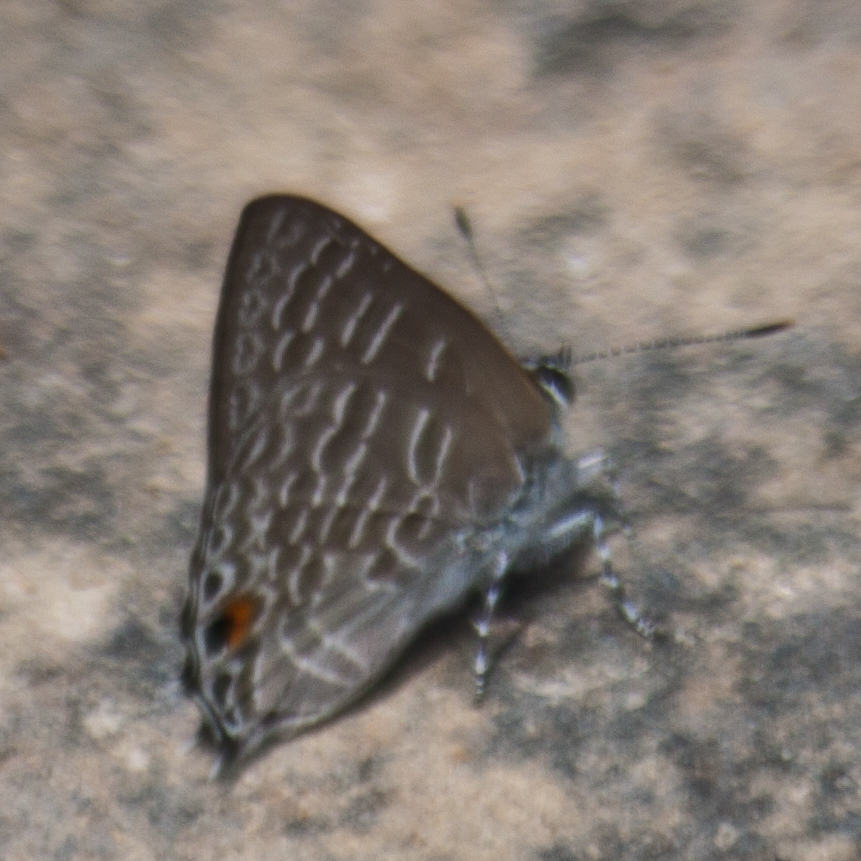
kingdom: Animalia
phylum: Arthropoda
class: Insecta
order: Lepidoptera
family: Lycaenidae
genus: Anthene
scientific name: Anthene licates
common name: White ciliate blue
